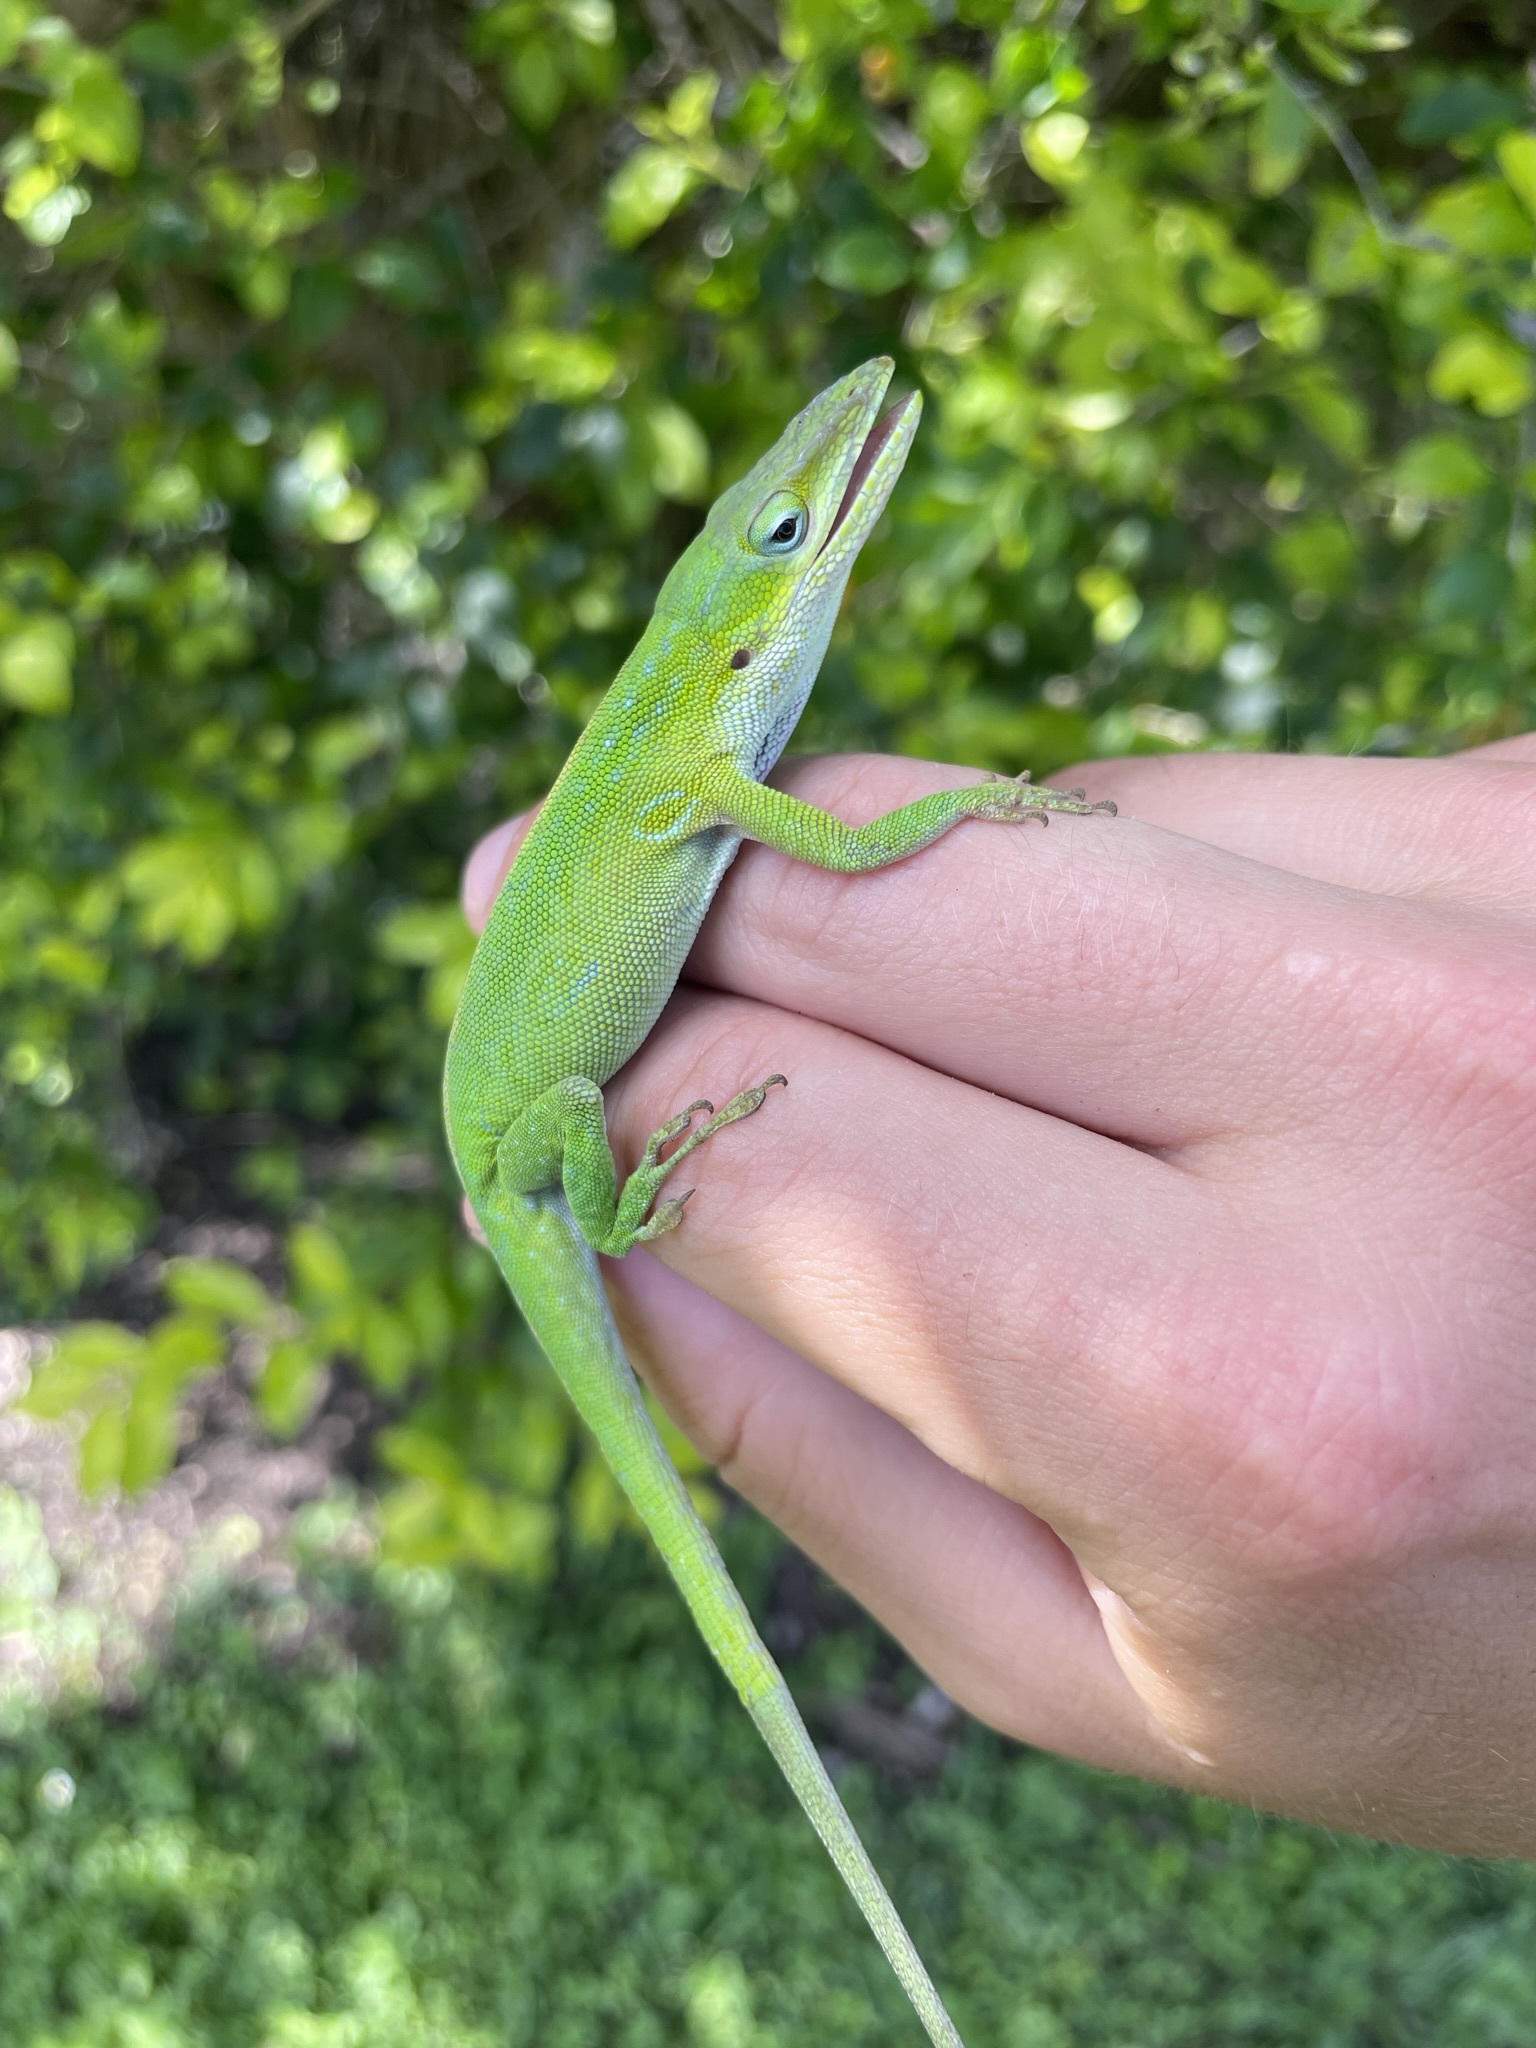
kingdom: Animalia
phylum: Chordata
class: Squamata
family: Dactyloidae
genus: Anolis
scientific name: Anolis carolinensis
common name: Green anole
